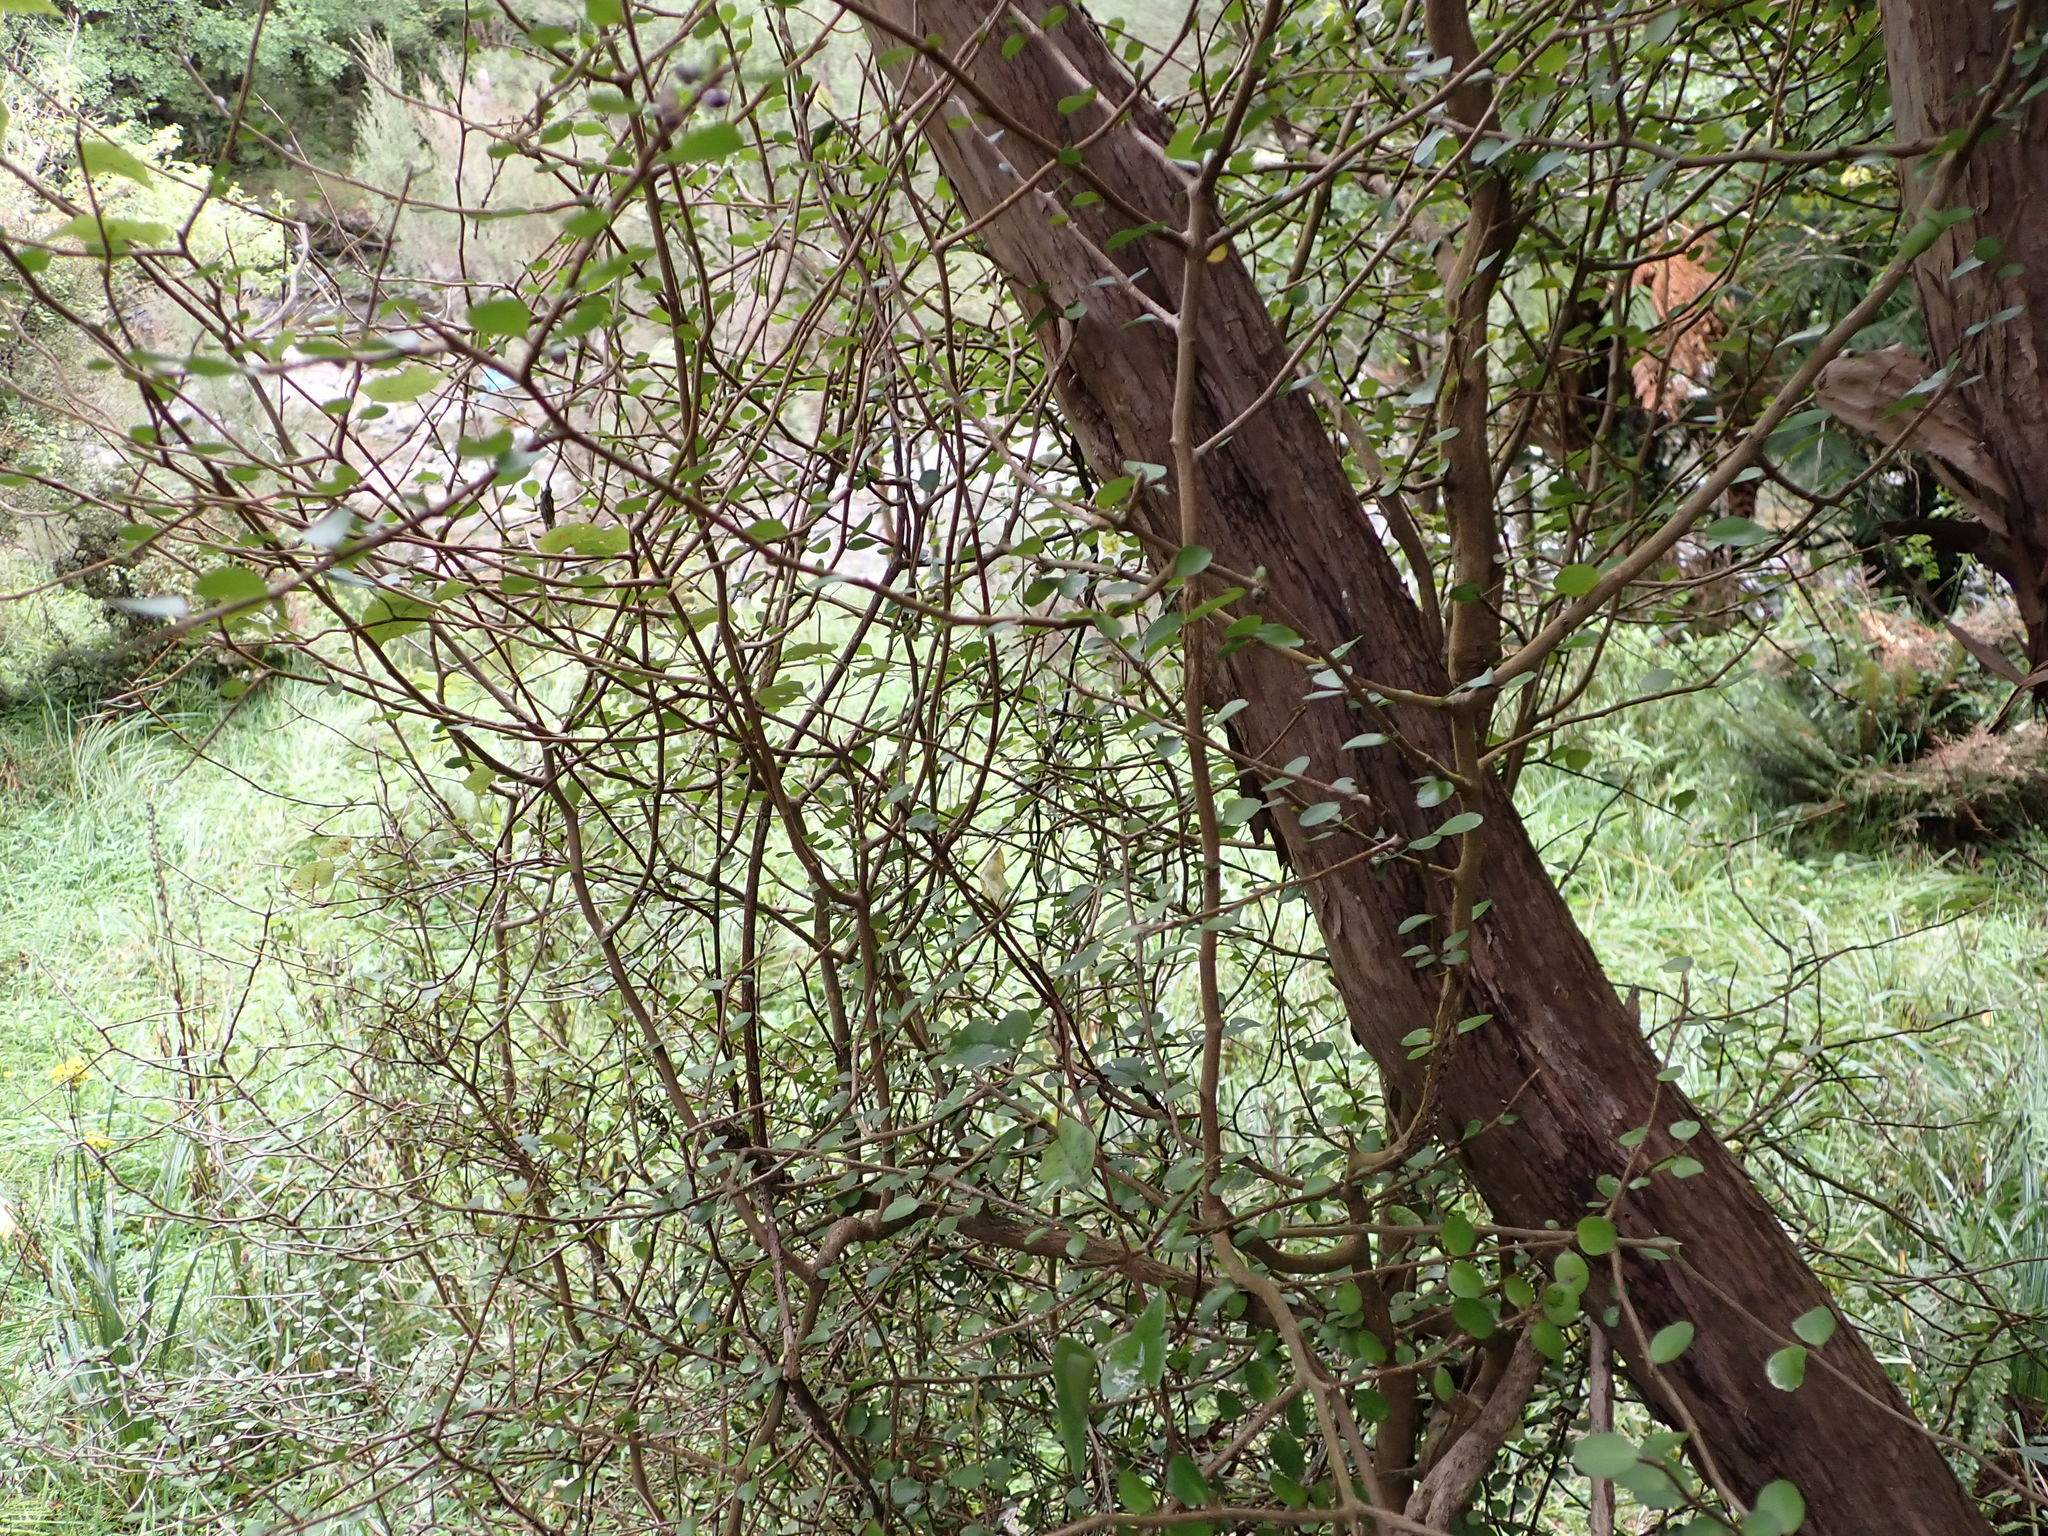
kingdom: Plantae
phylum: Tracheophyta
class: Magnoliopsida
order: Apiales
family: Araliaceae
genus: Raukaua
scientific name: Raukaua anomalus
